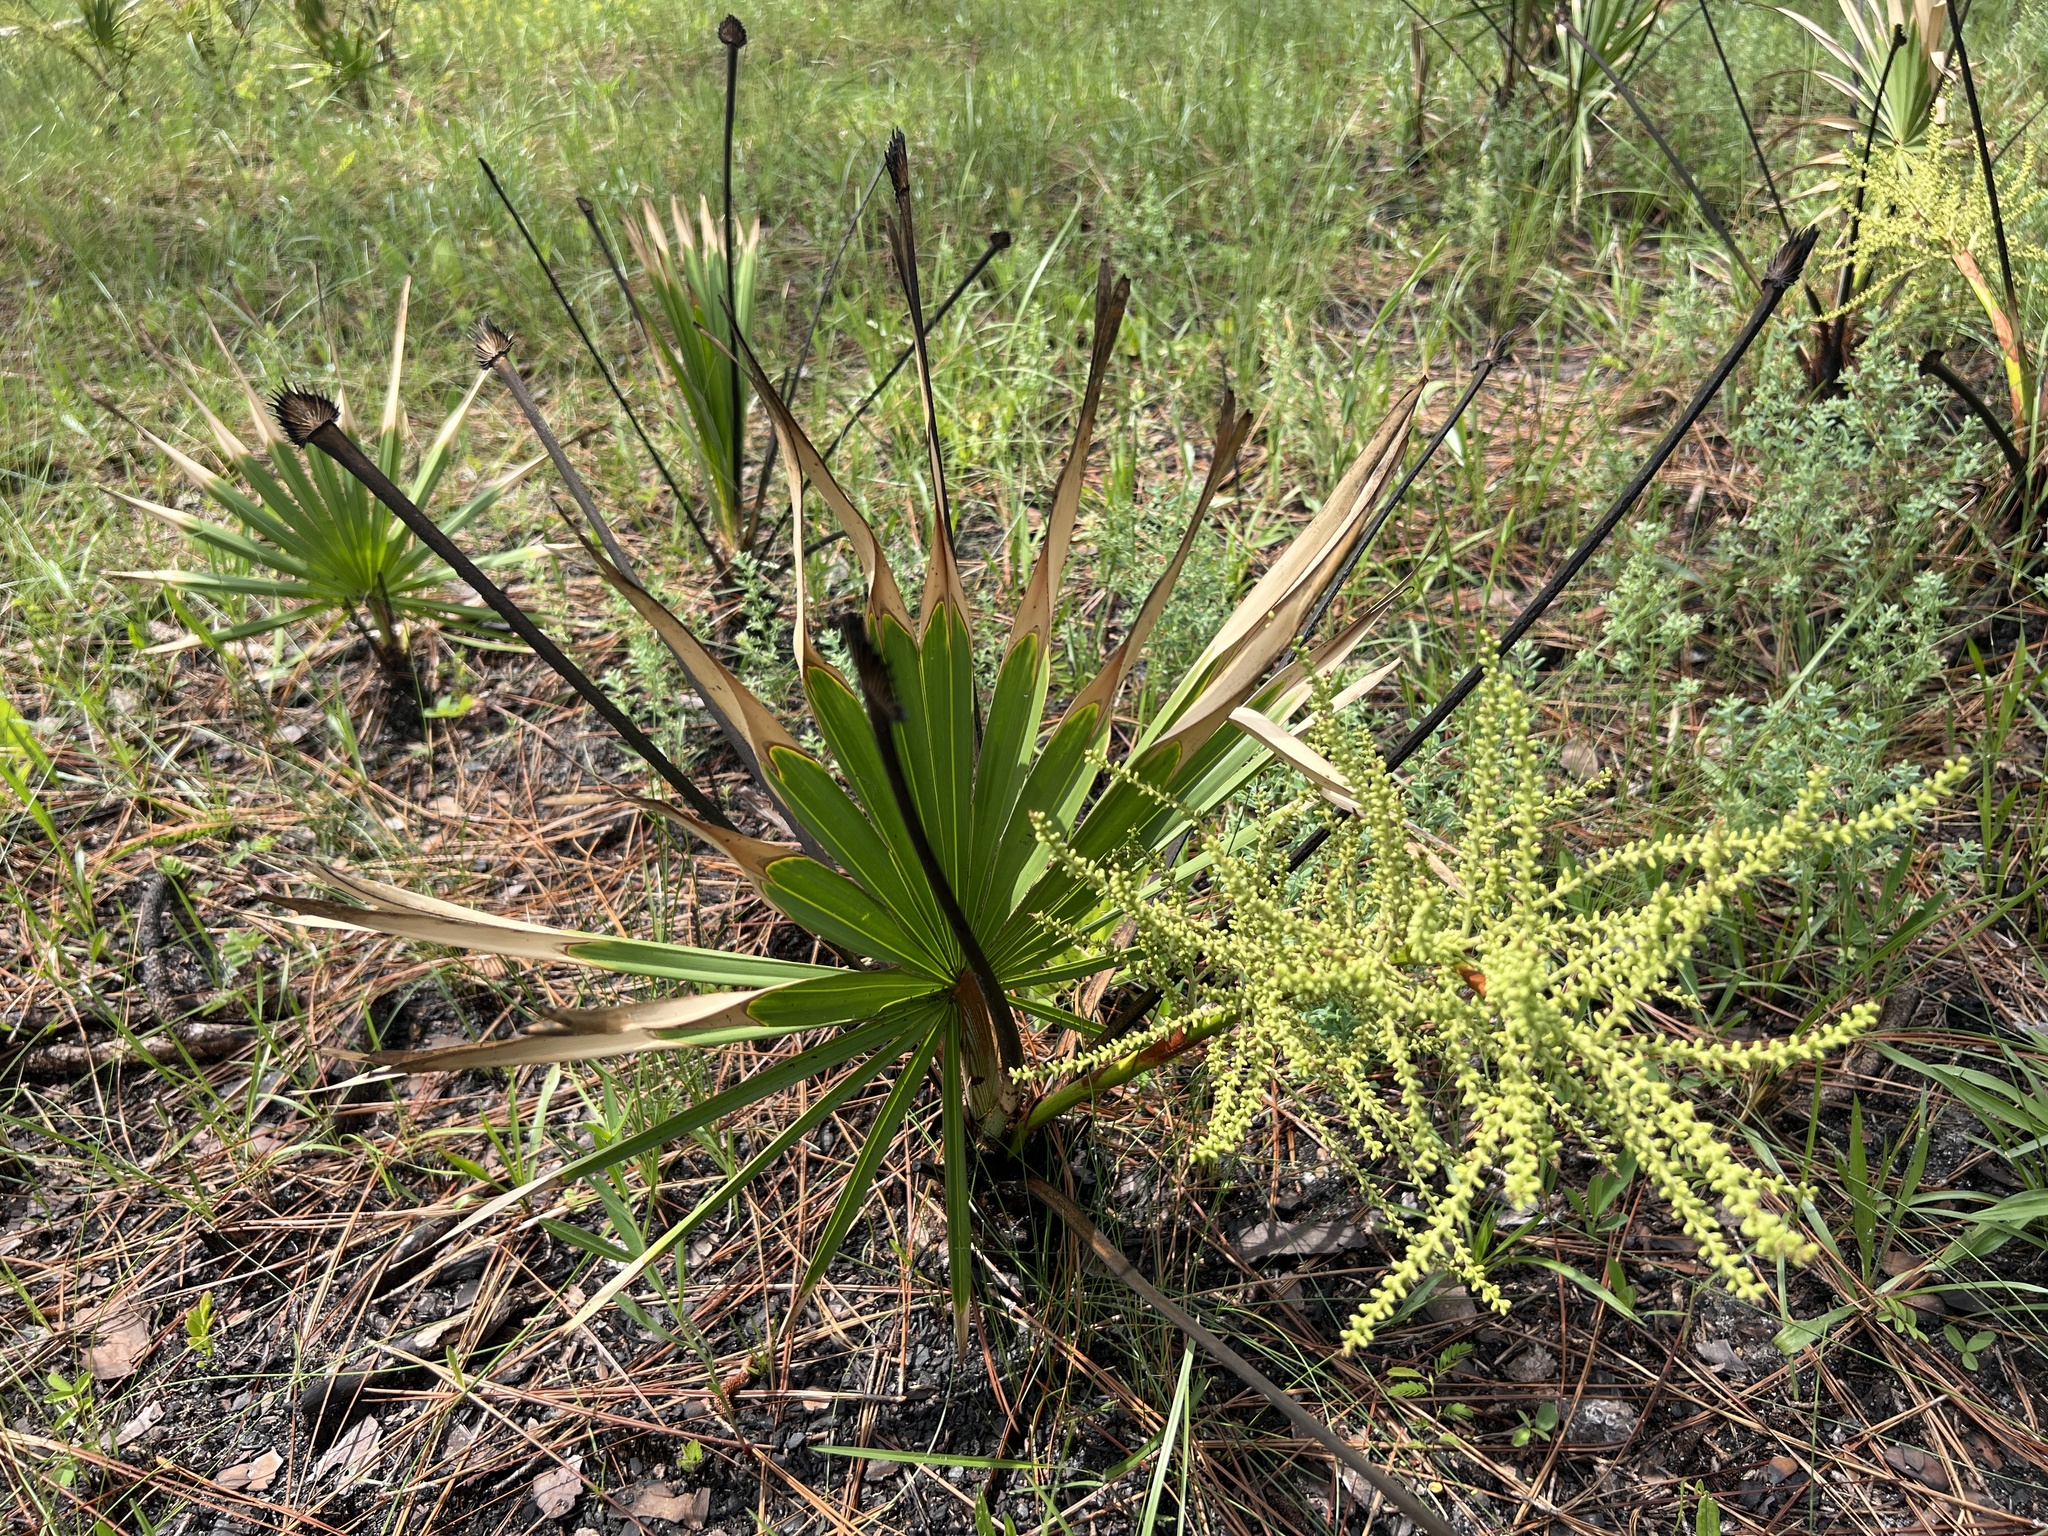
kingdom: Plantae
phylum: Tracheophyta
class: Liliopsida
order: Arecales
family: Arecaceae
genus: Serenoa
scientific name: Serenoa repens
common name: Saw-palmetto
